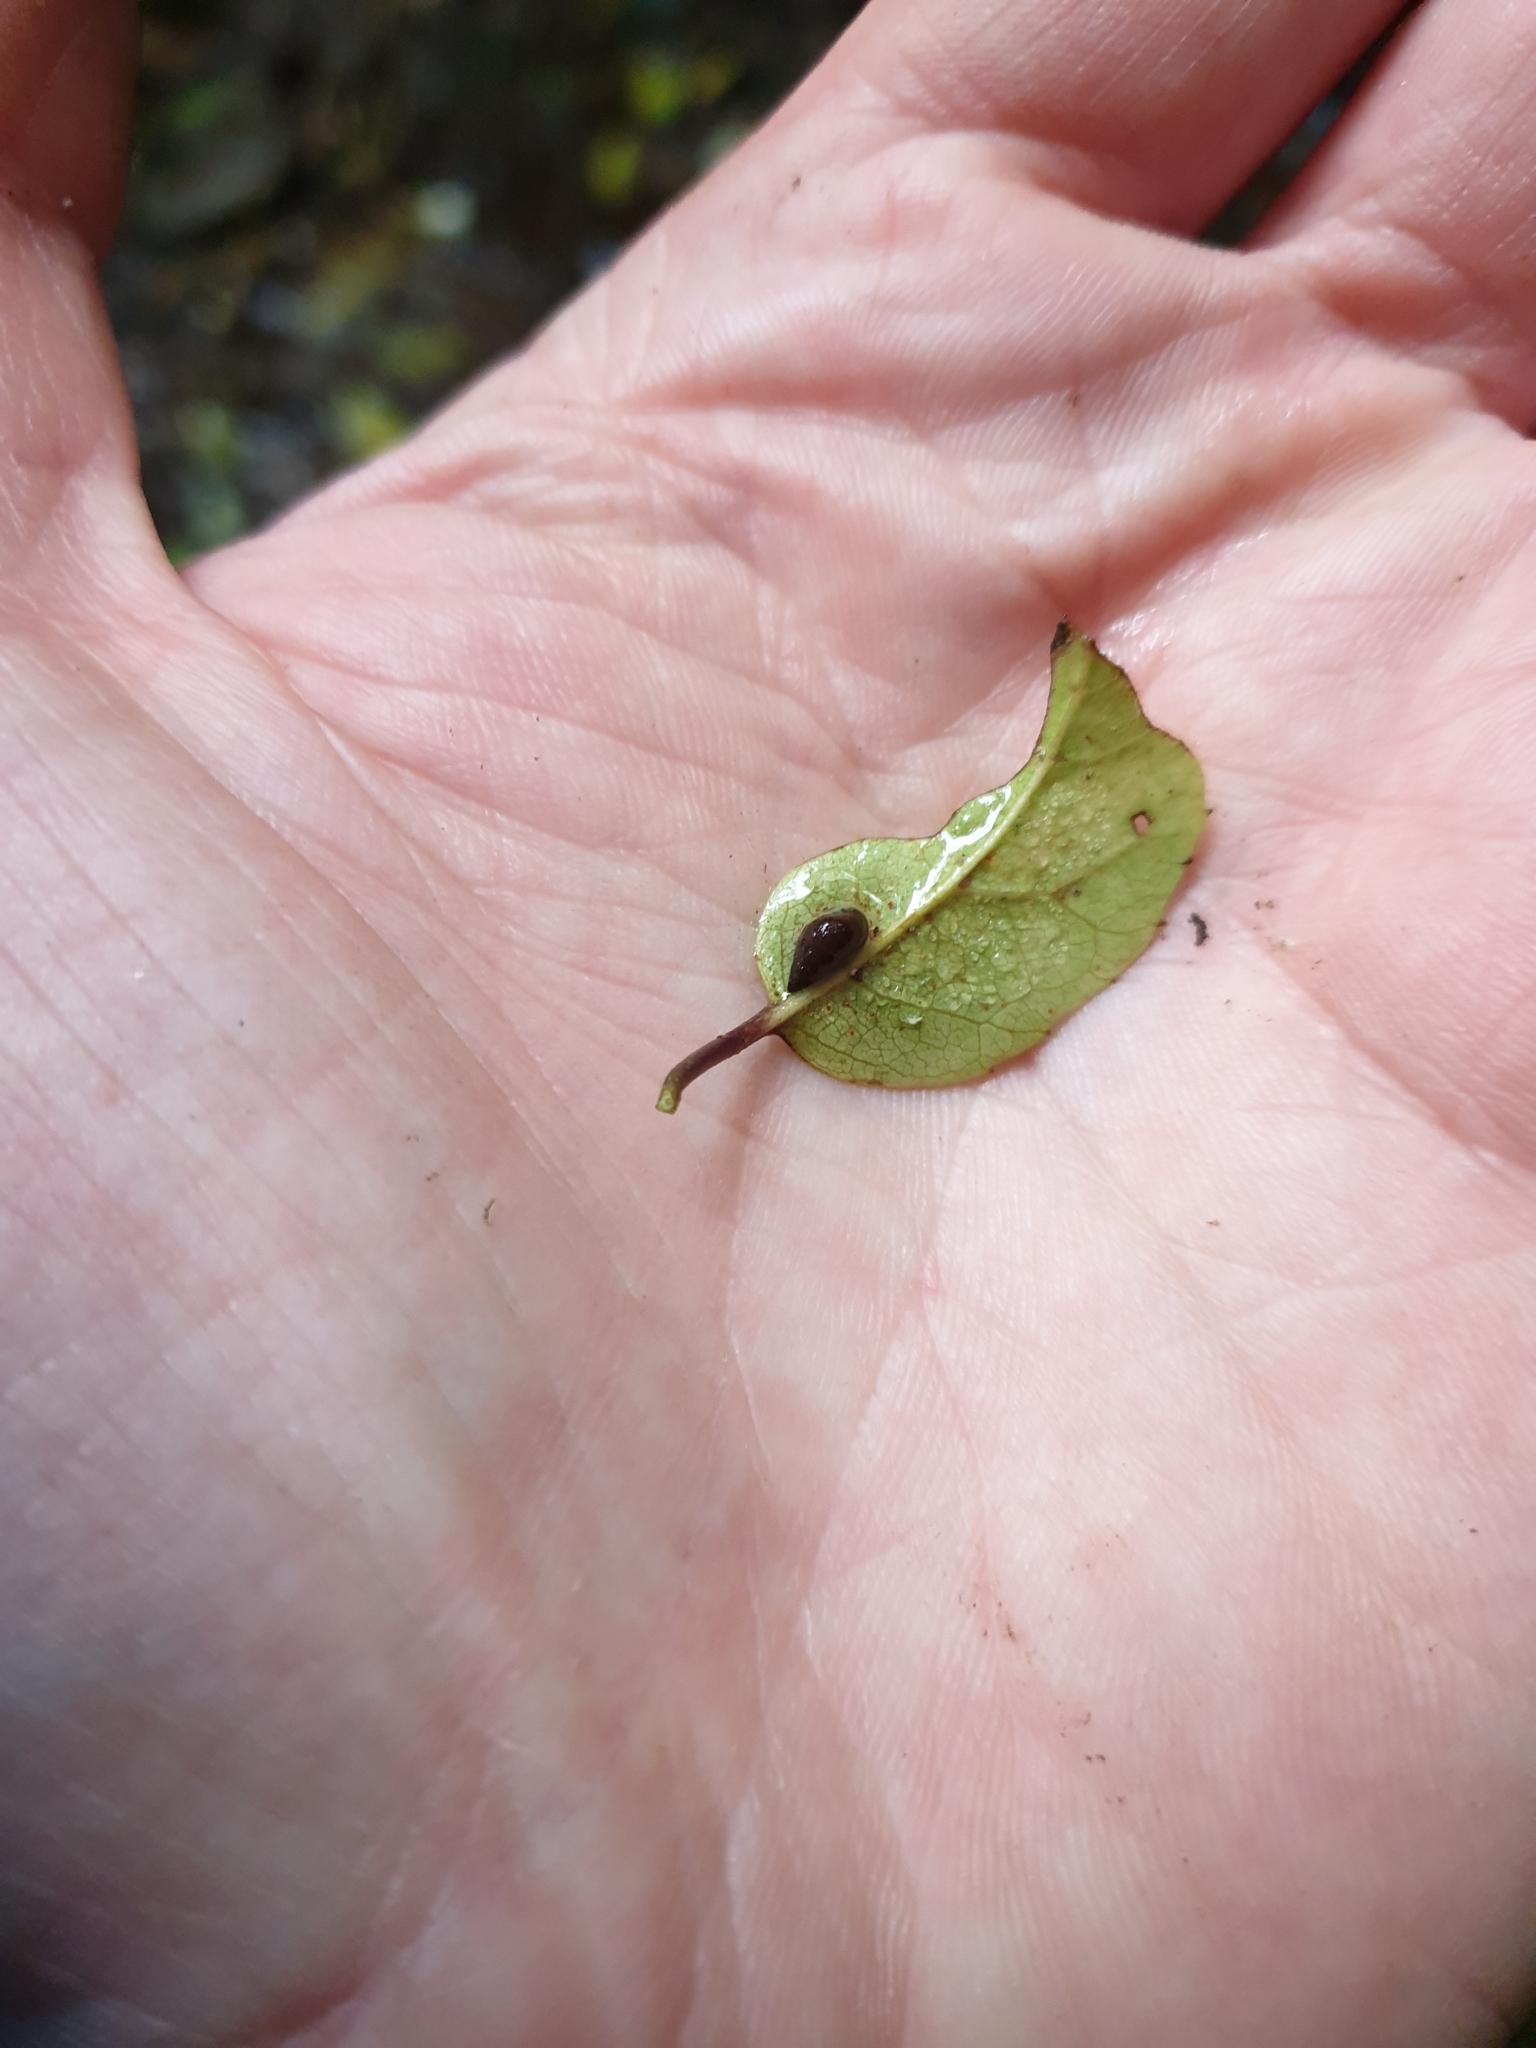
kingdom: Animalia
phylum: Mollusca
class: Gastropoda
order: Littorinimorpha
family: Tateidae
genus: Potamopyrgus
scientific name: Potamopyrgus antipodarum
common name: Jenkins' spire snail
